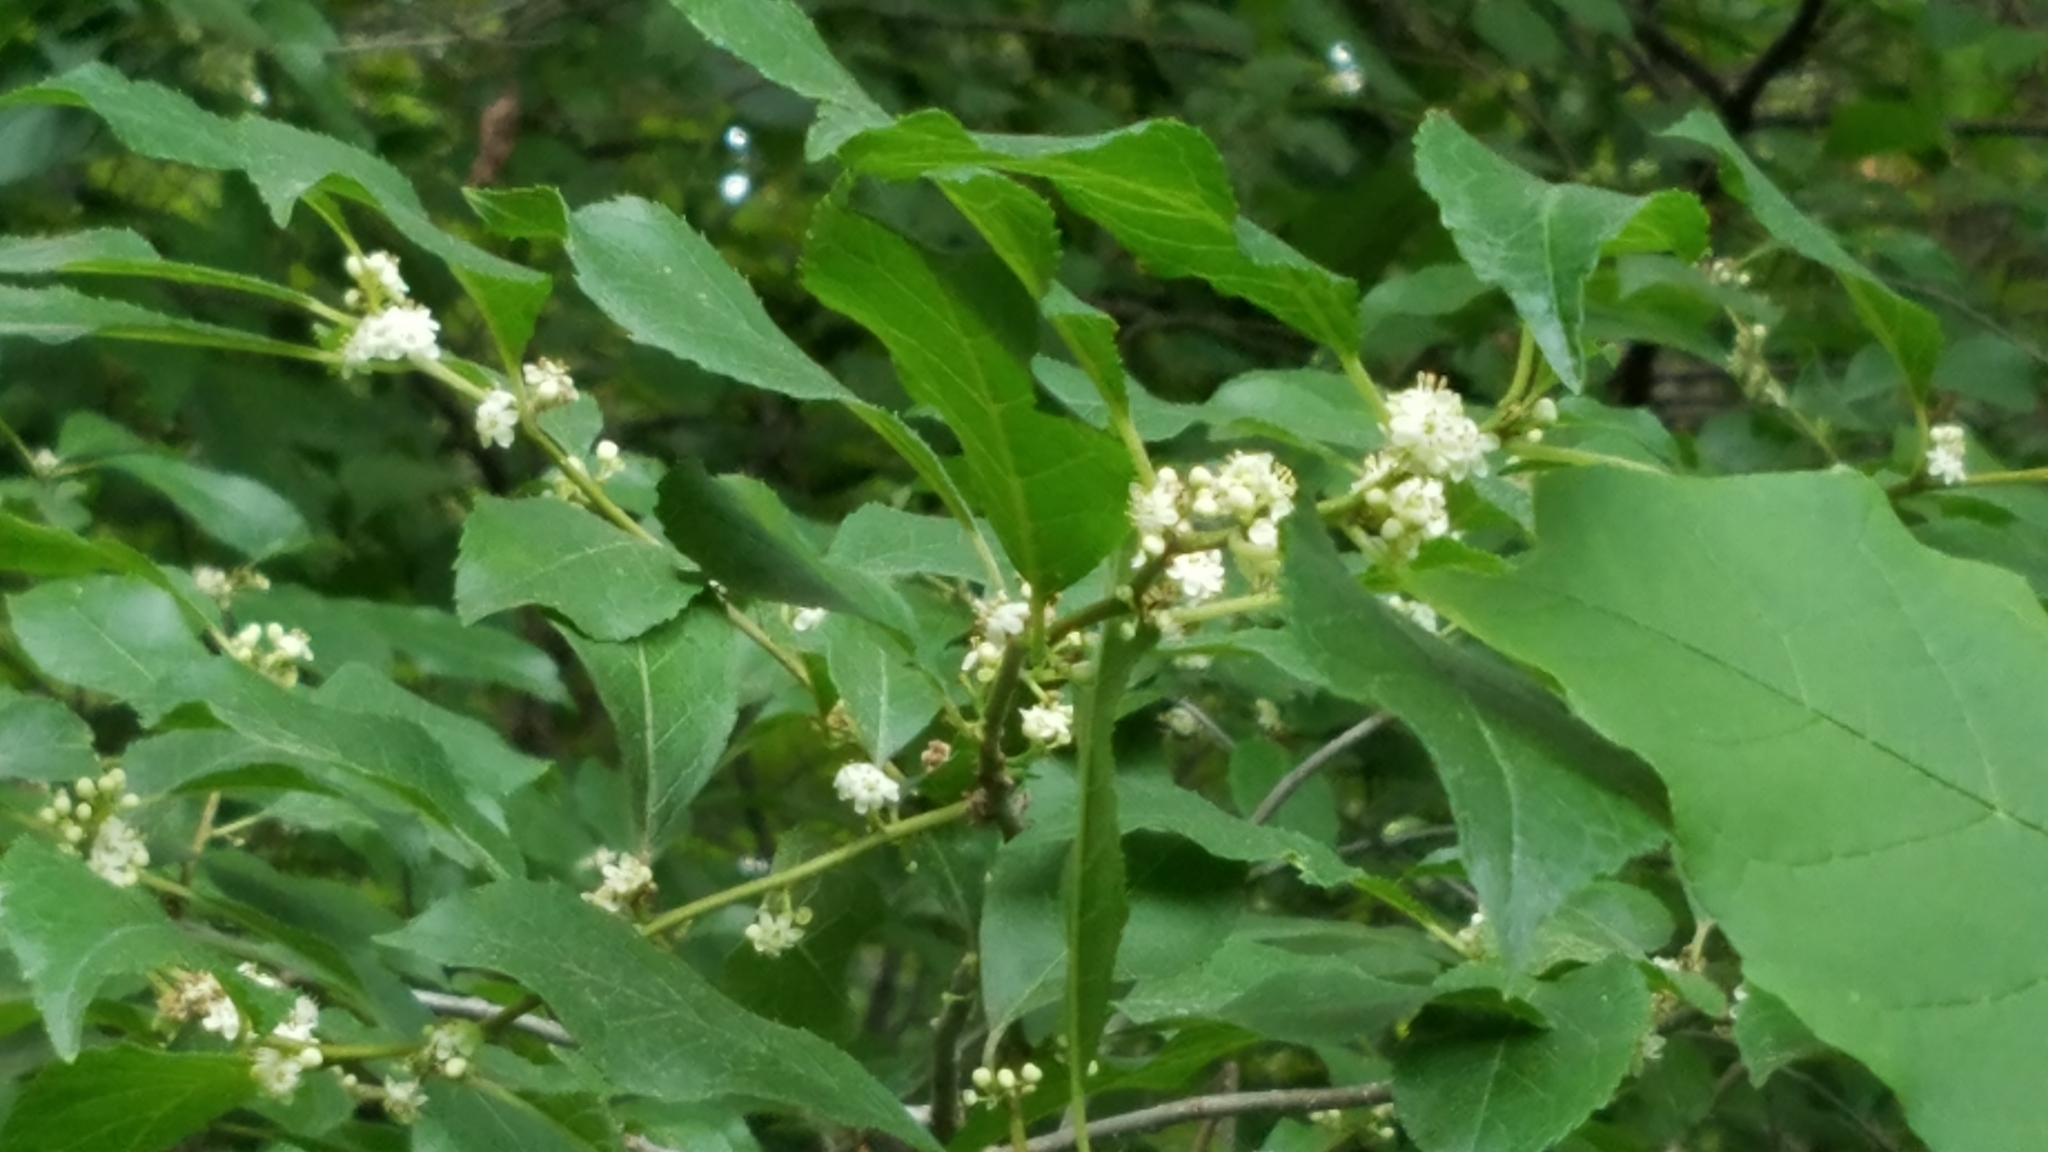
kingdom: Plantae
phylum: Tracheophyta
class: Magnoliopsida
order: Aquifoliales
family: Aquifoliaceae
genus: Ilex
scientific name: Ilex verticillata
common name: Virginia winterberry
